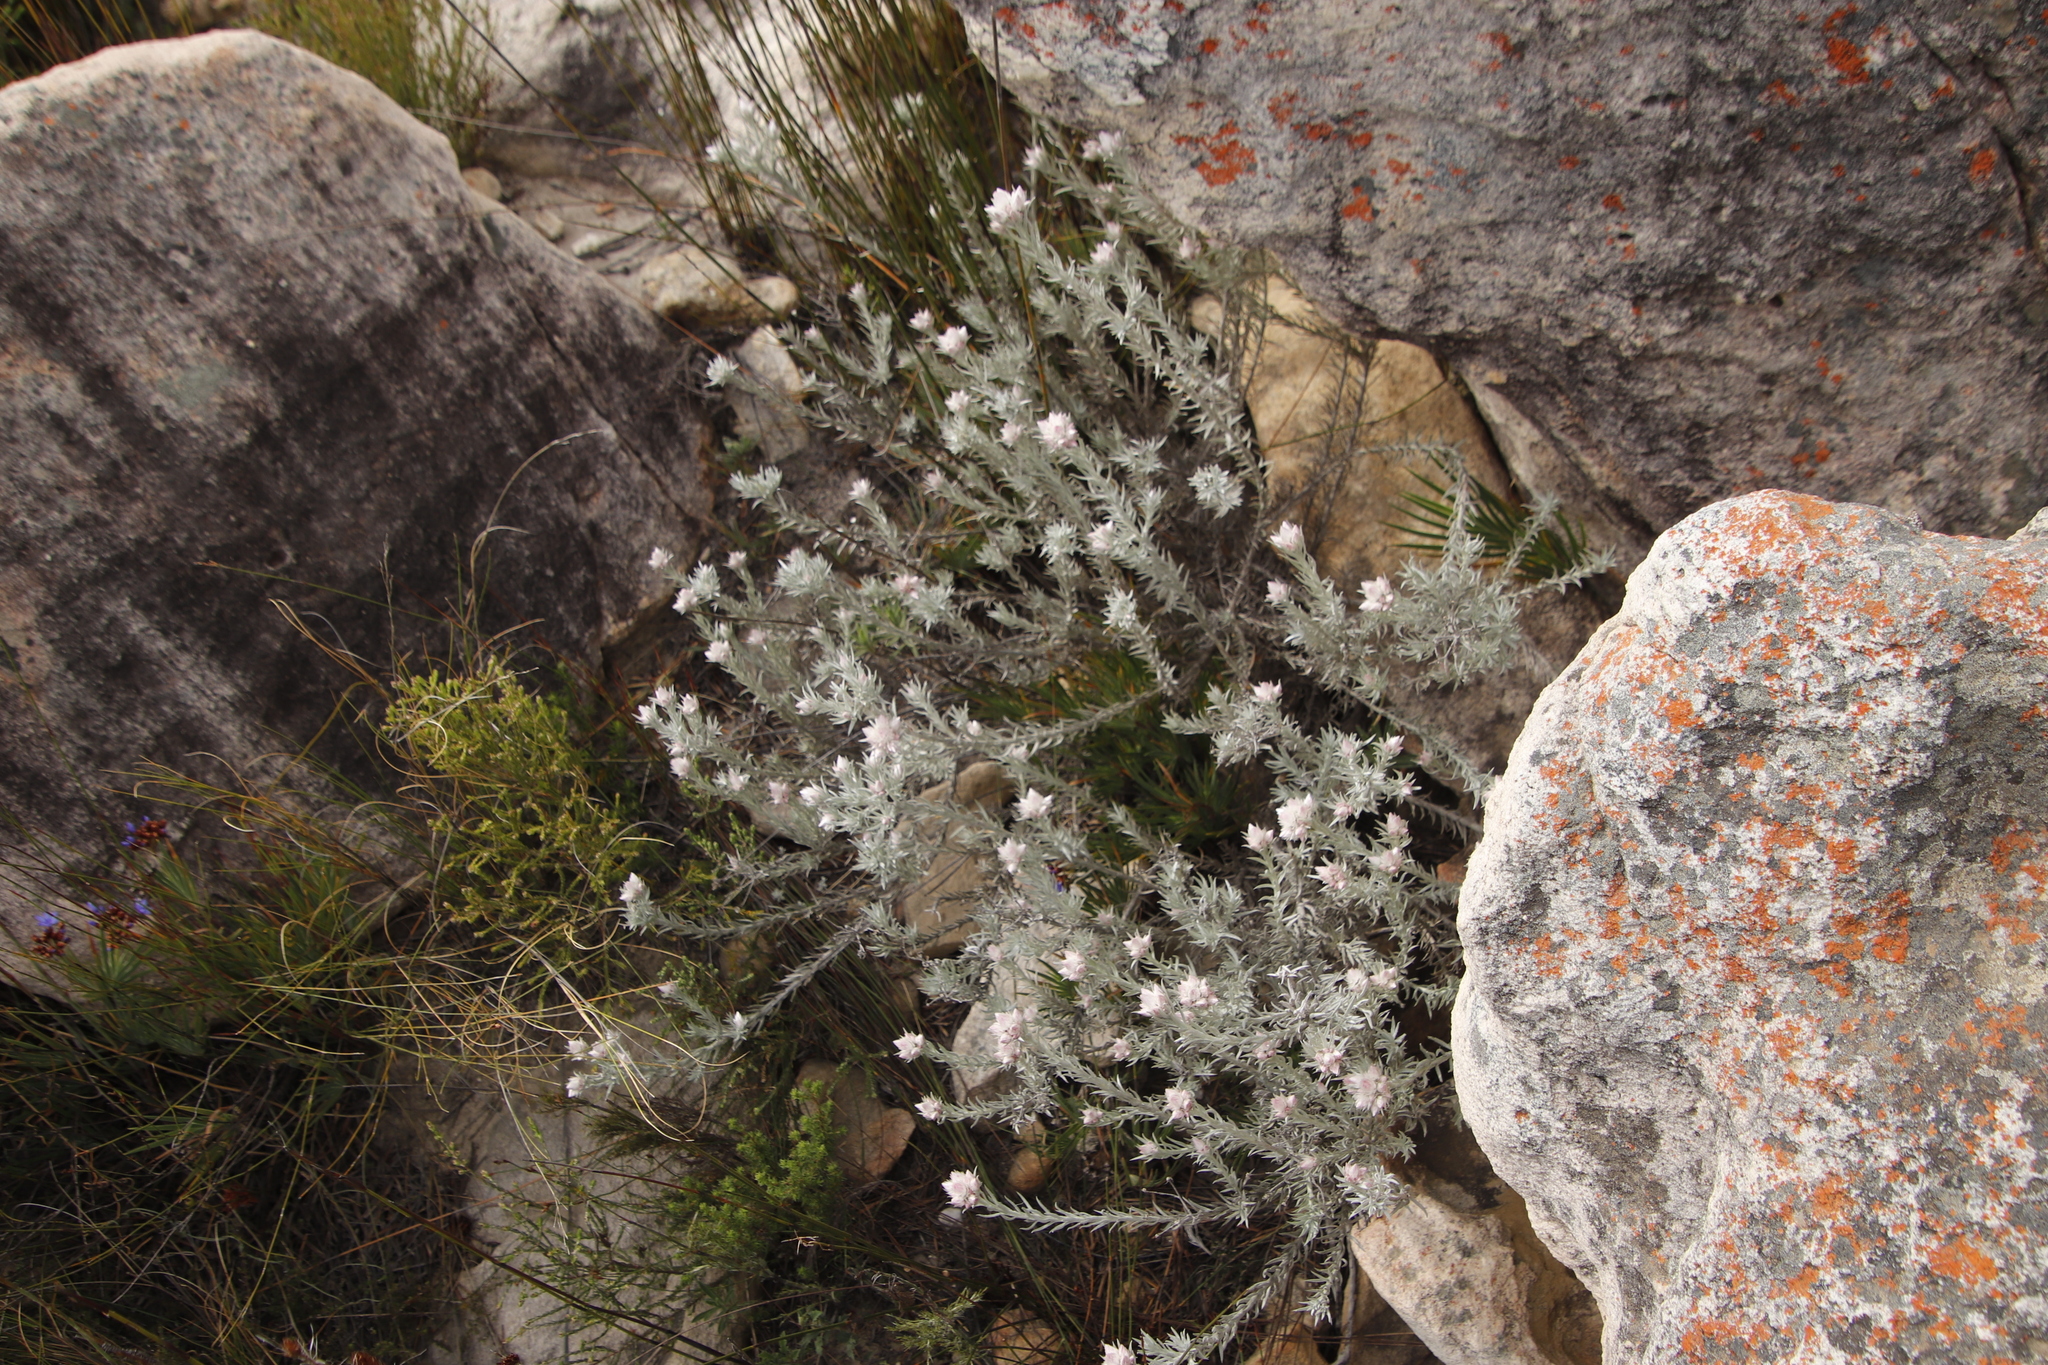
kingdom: Plantae
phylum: Tracheophyta
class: Magnoliopsida
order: Asterales
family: Asteraceae
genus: Achyranthemum
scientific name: Achyranthemum paniculatum
